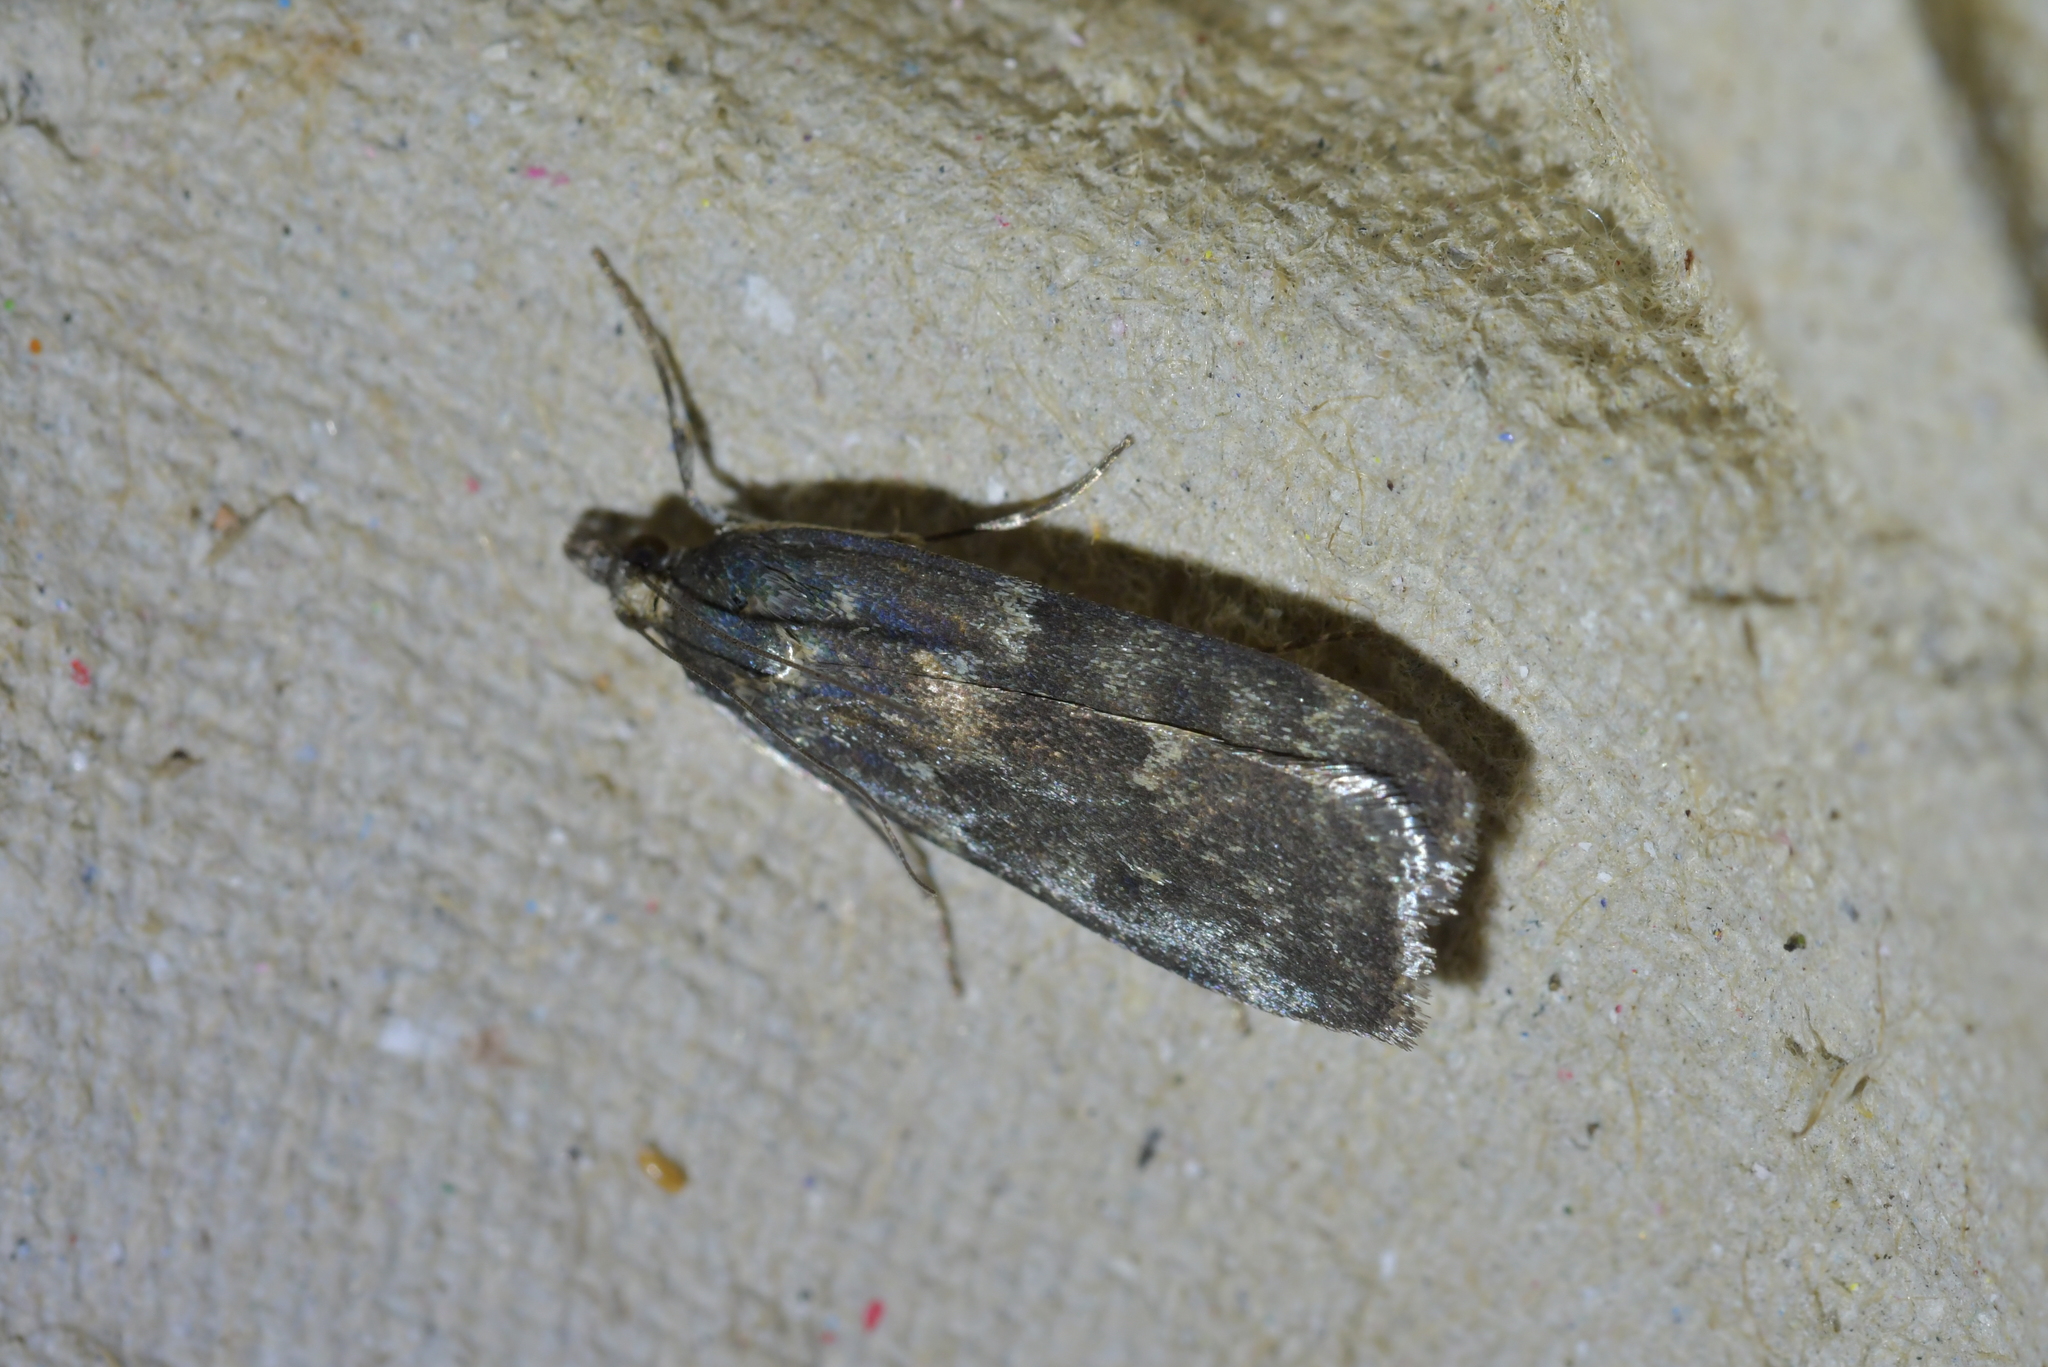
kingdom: Animalia
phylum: Arthropoda
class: Insecta
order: Lepidoptera
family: Crambidae
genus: Eudonia
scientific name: Eudonia cataxesta
